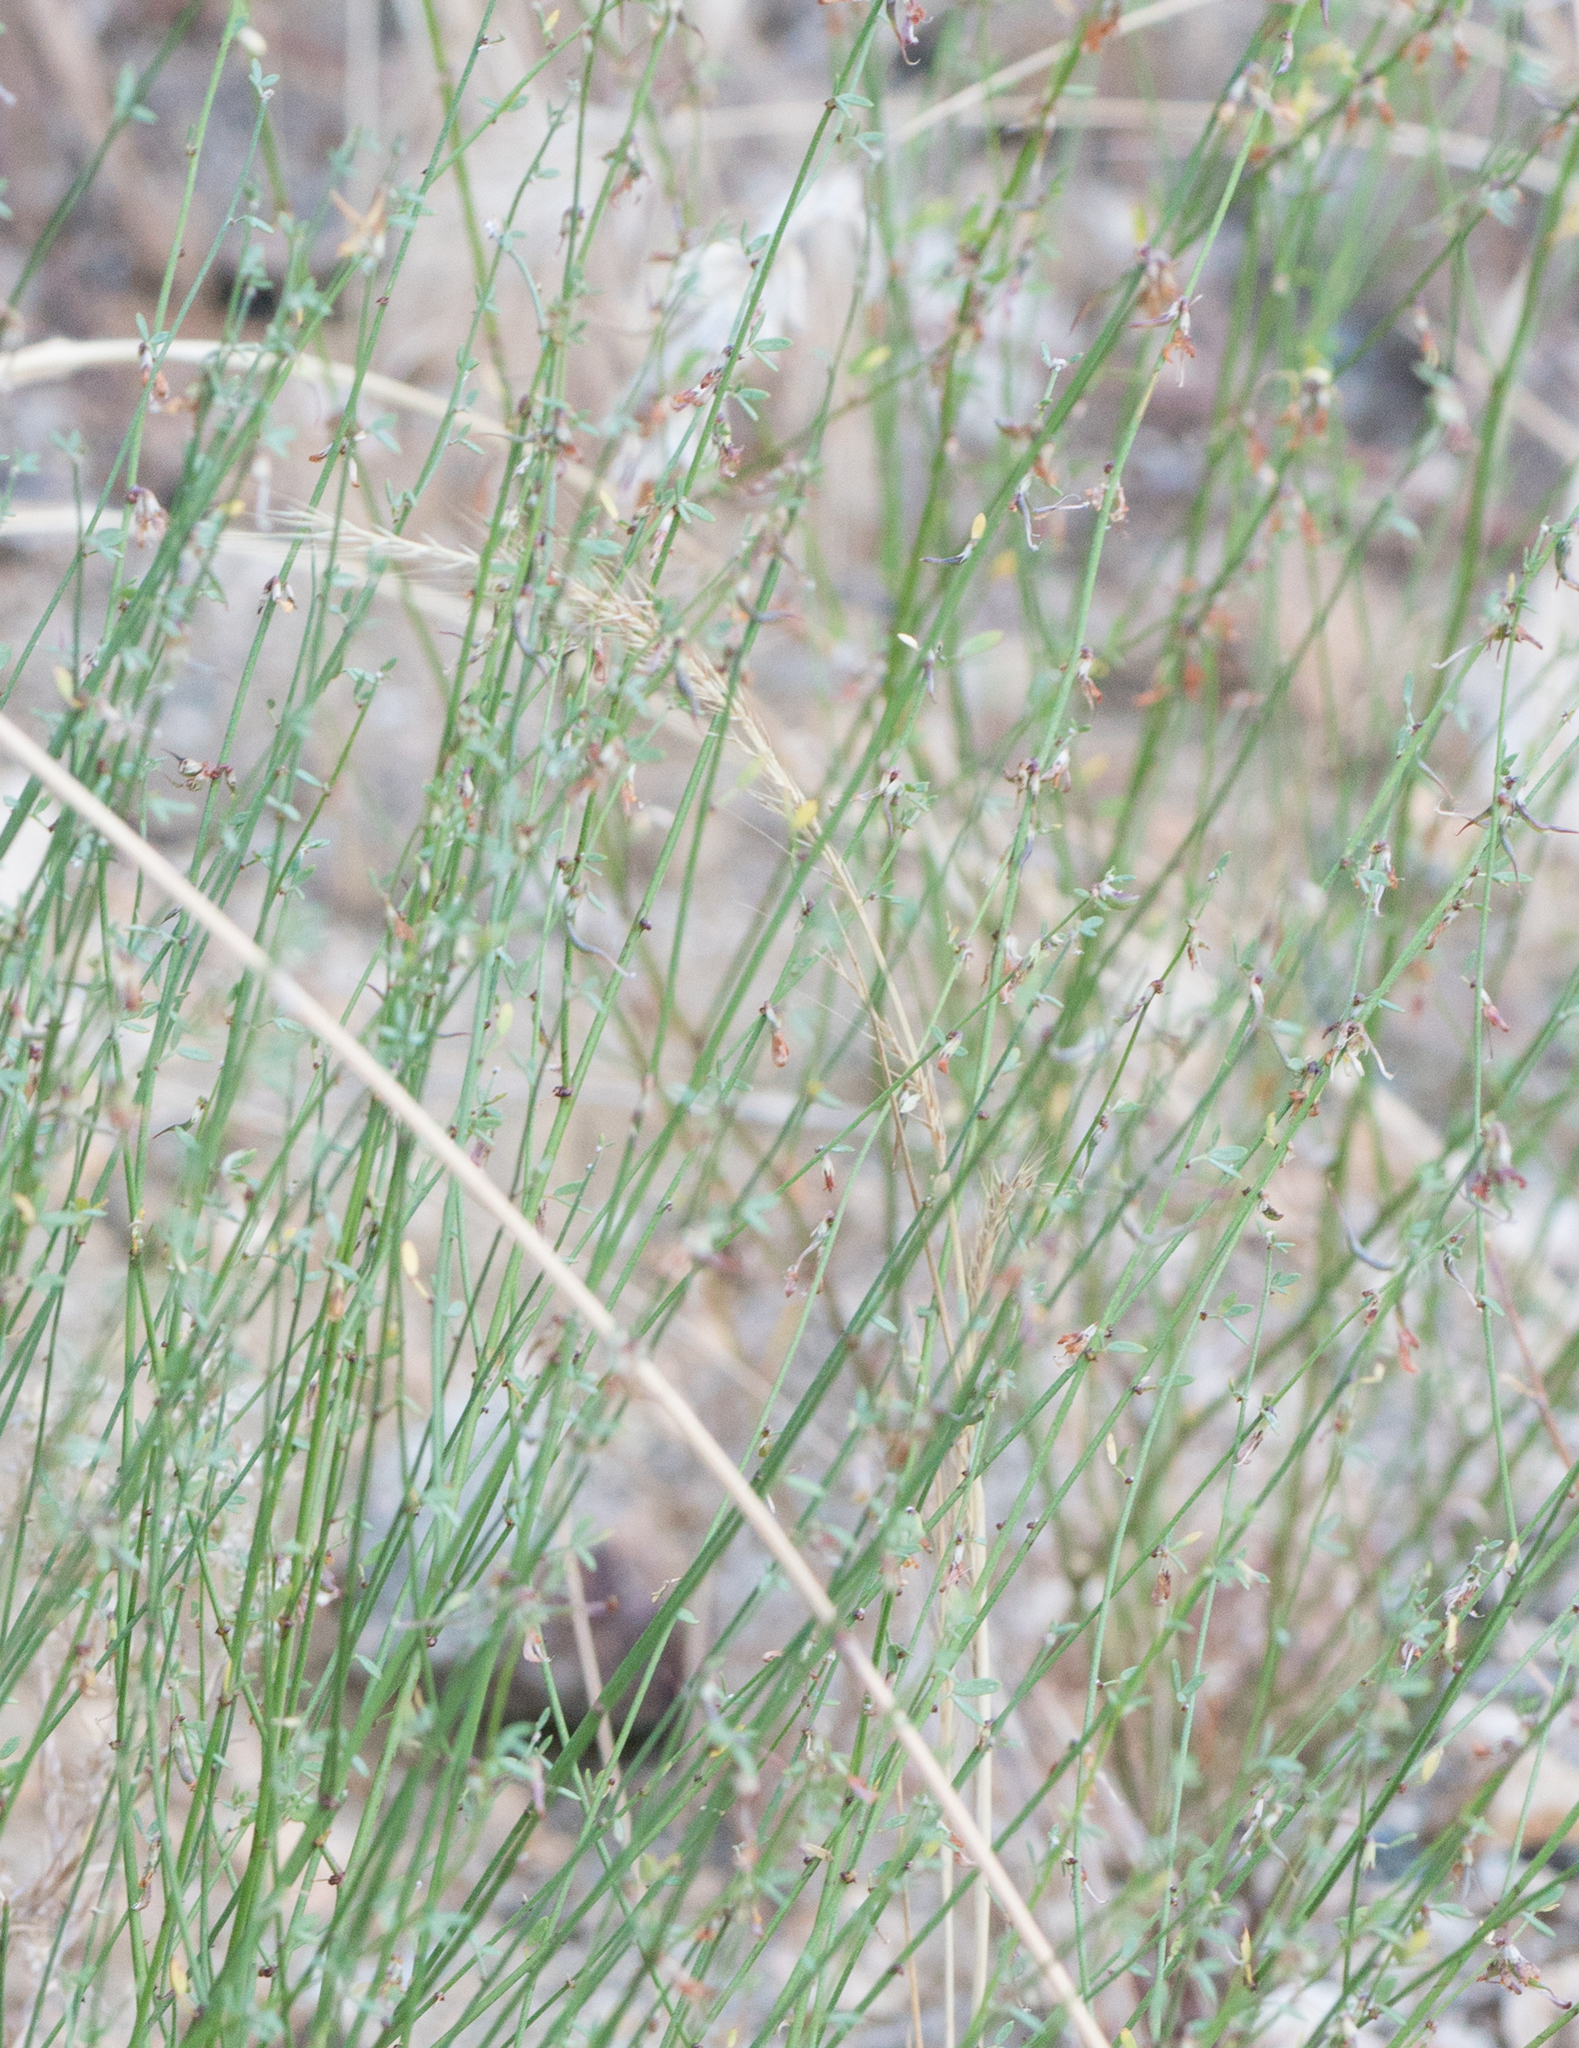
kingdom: Plantae
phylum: Tracheophyta
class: Magnoliopsida
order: Fabales
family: Fabaceae
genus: Acmispon
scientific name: Acmispon glaber
